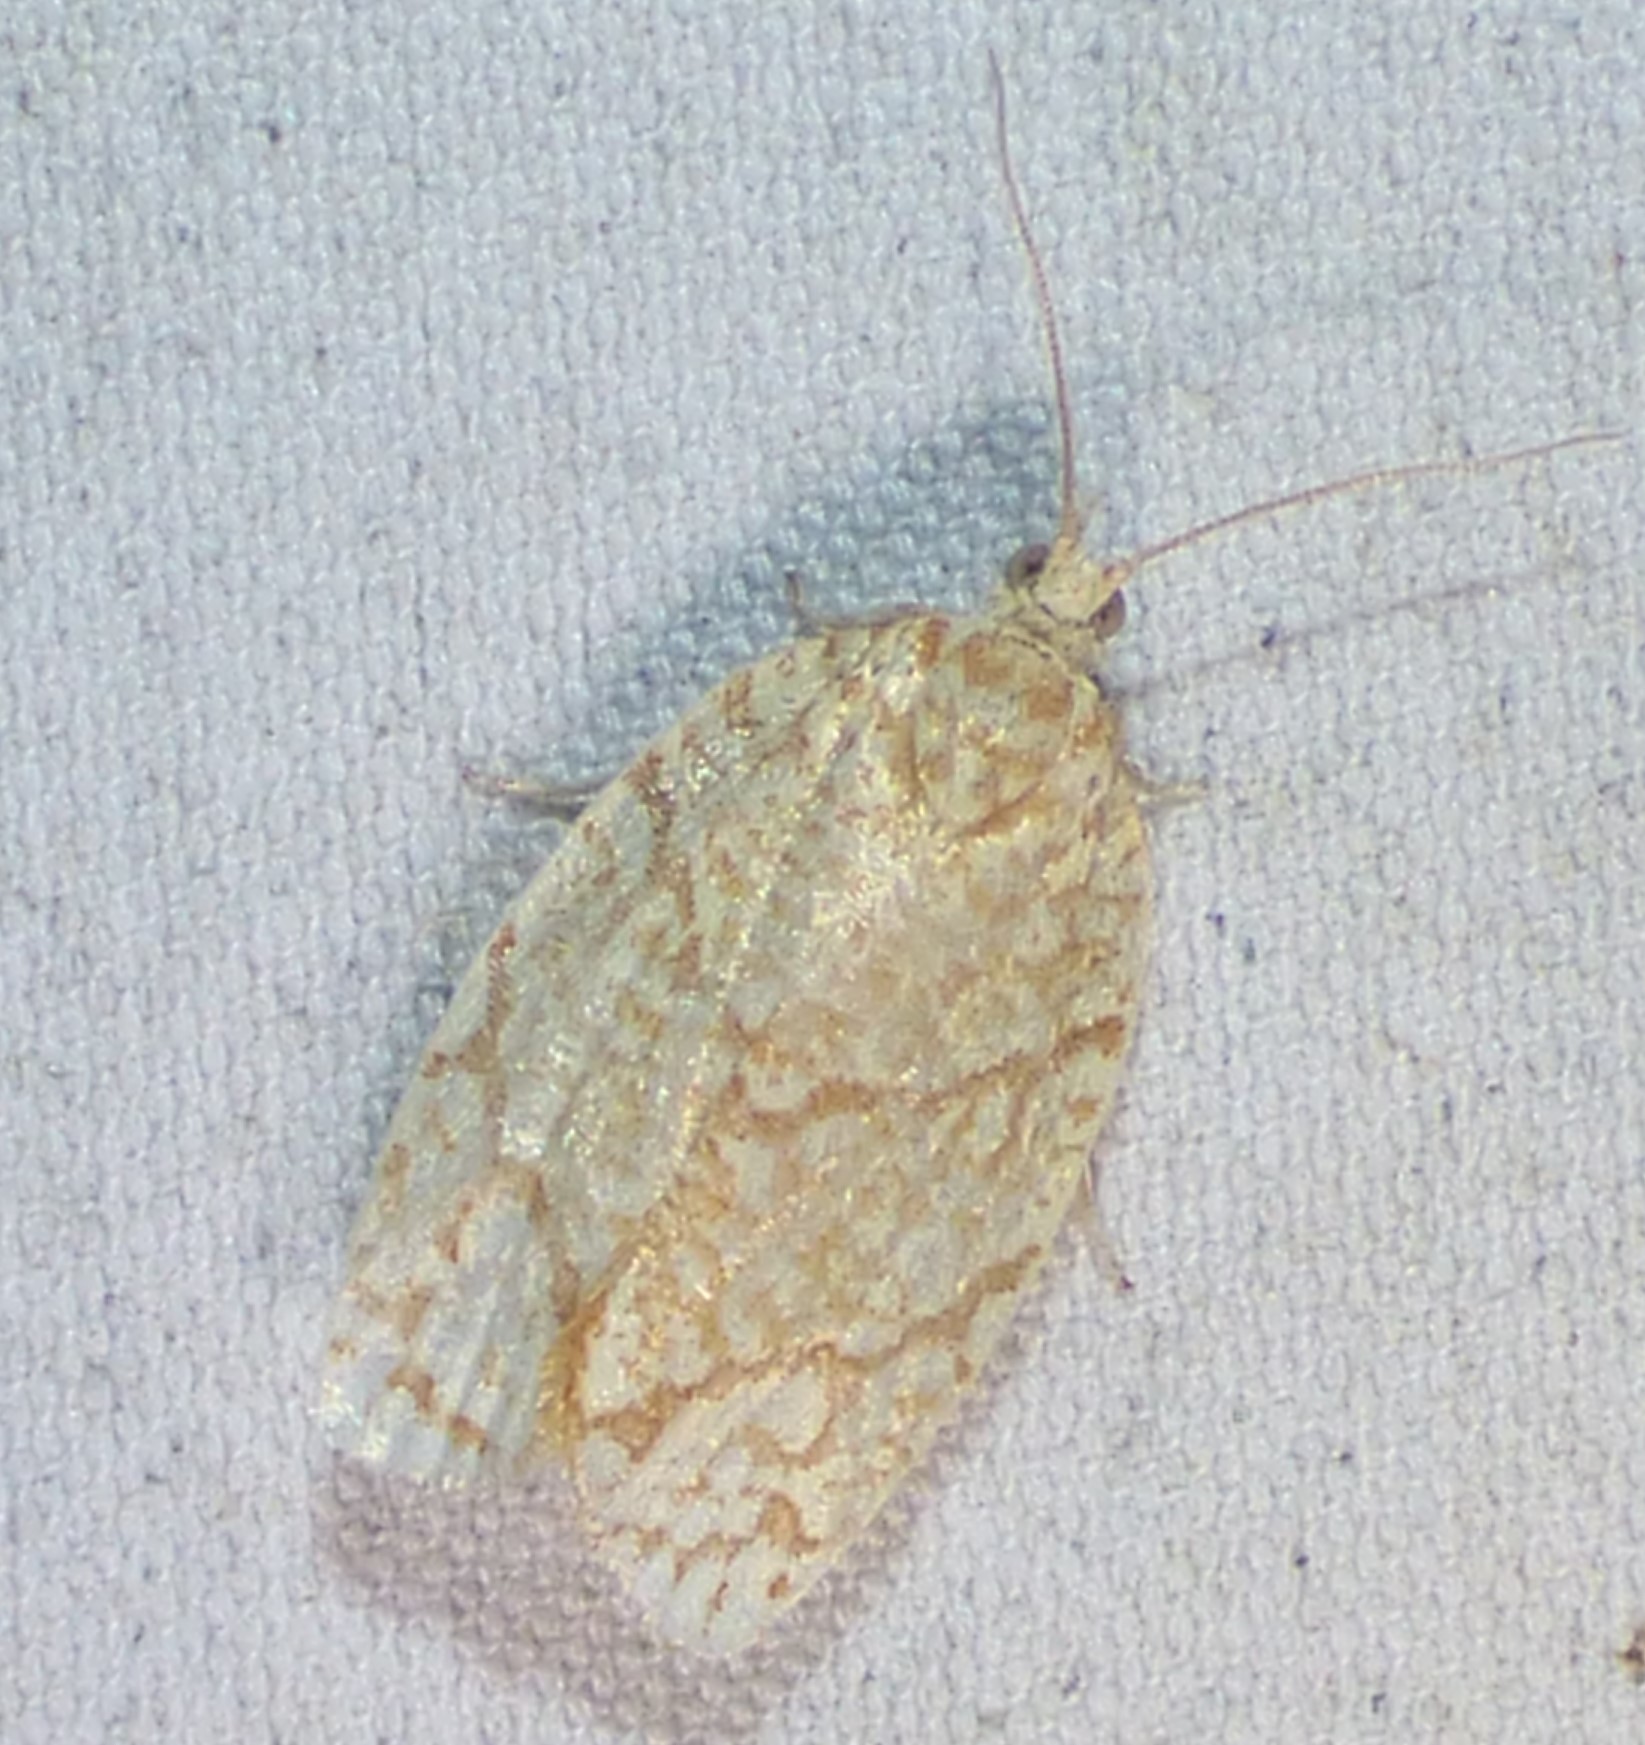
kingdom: Animalia
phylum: Arthropoda
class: Insecta
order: Lepidoptera
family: Tortricidae
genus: Argyrotaenia
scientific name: Argyrotaenia quercifoliana
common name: Yellow-winged oak leafroller moth
